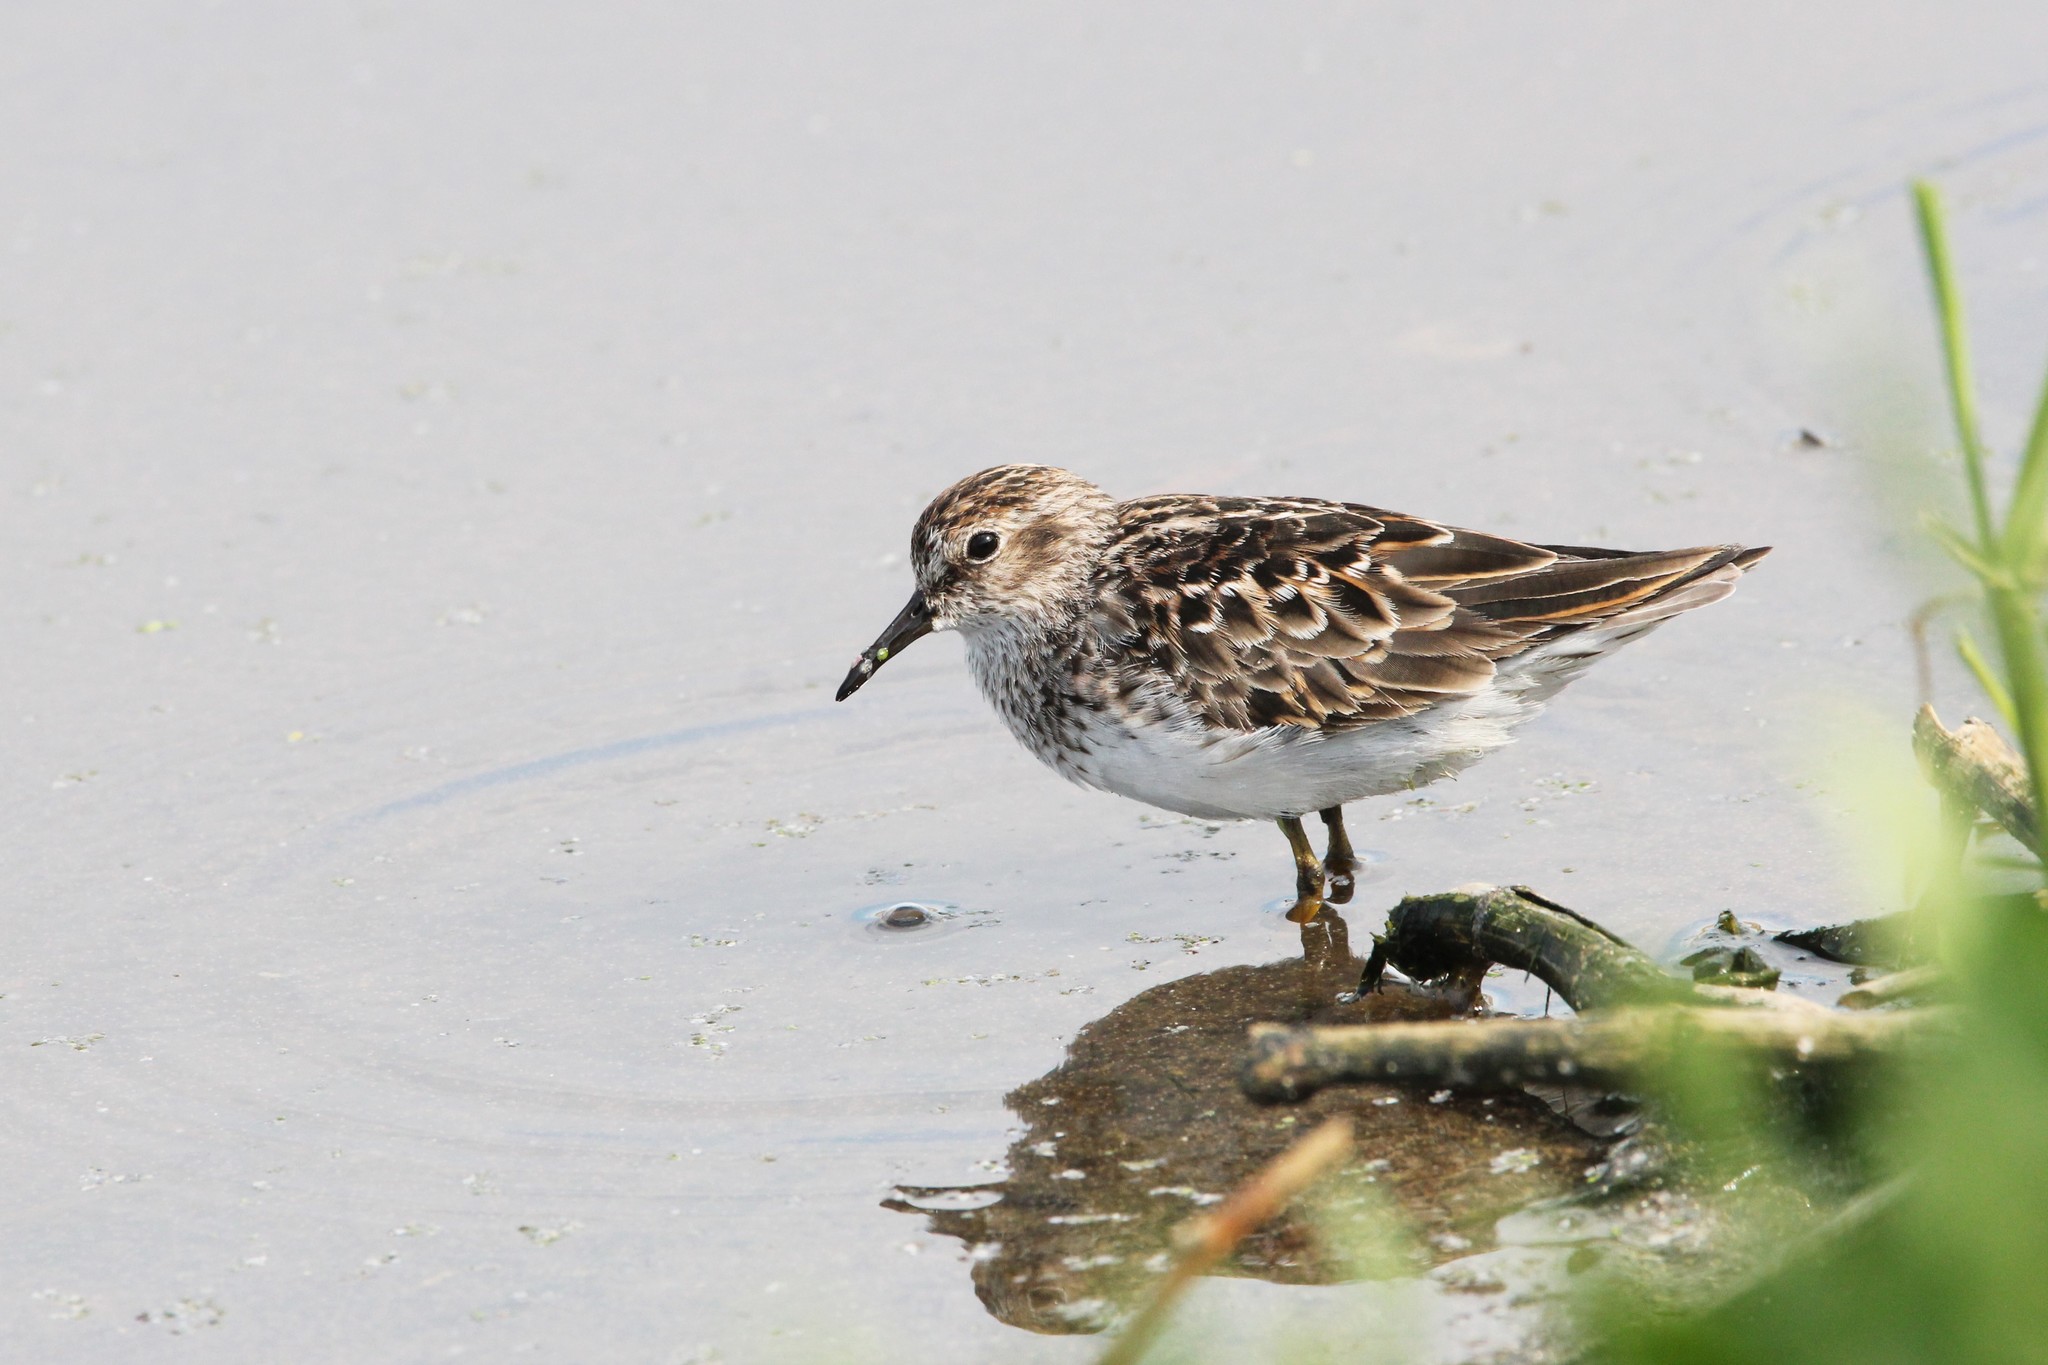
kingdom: Animalia
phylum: Chordata
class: Aves
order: Charadriiformes
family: Scolopacidae
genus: Calidris
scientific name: Calidris minutilla
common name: Least sandpiper
